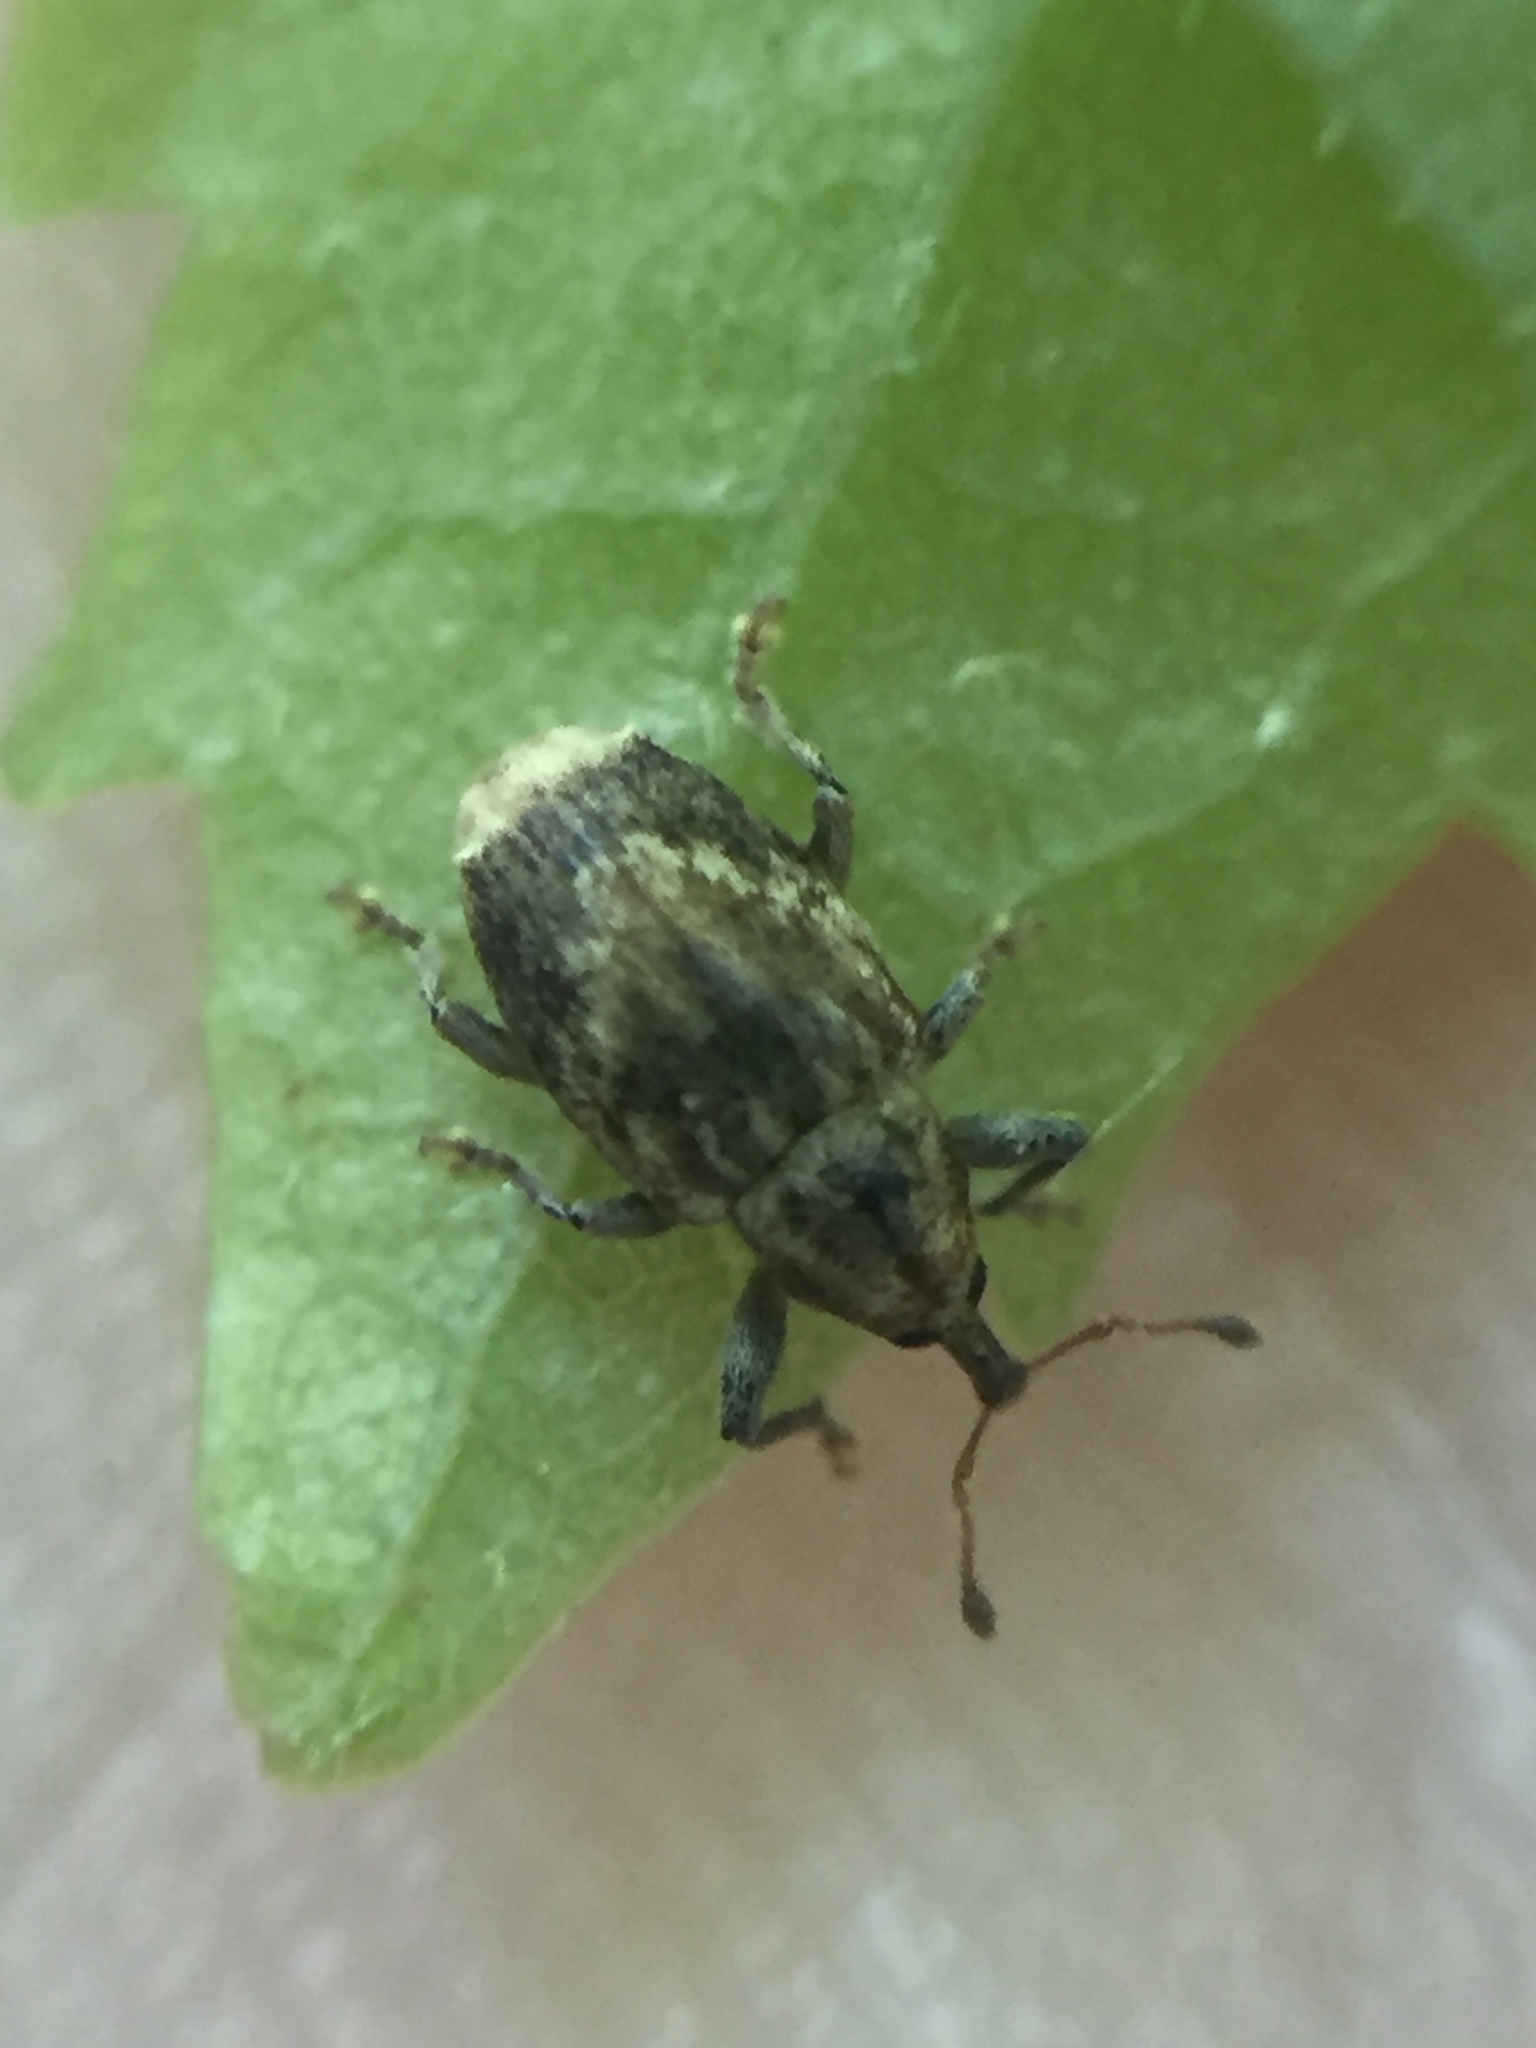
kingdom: Animalia
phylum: Arthropoda
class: Insecta
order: Coleoptera
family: Curculionidae
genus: Aneuma
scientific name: Aneuma compta
